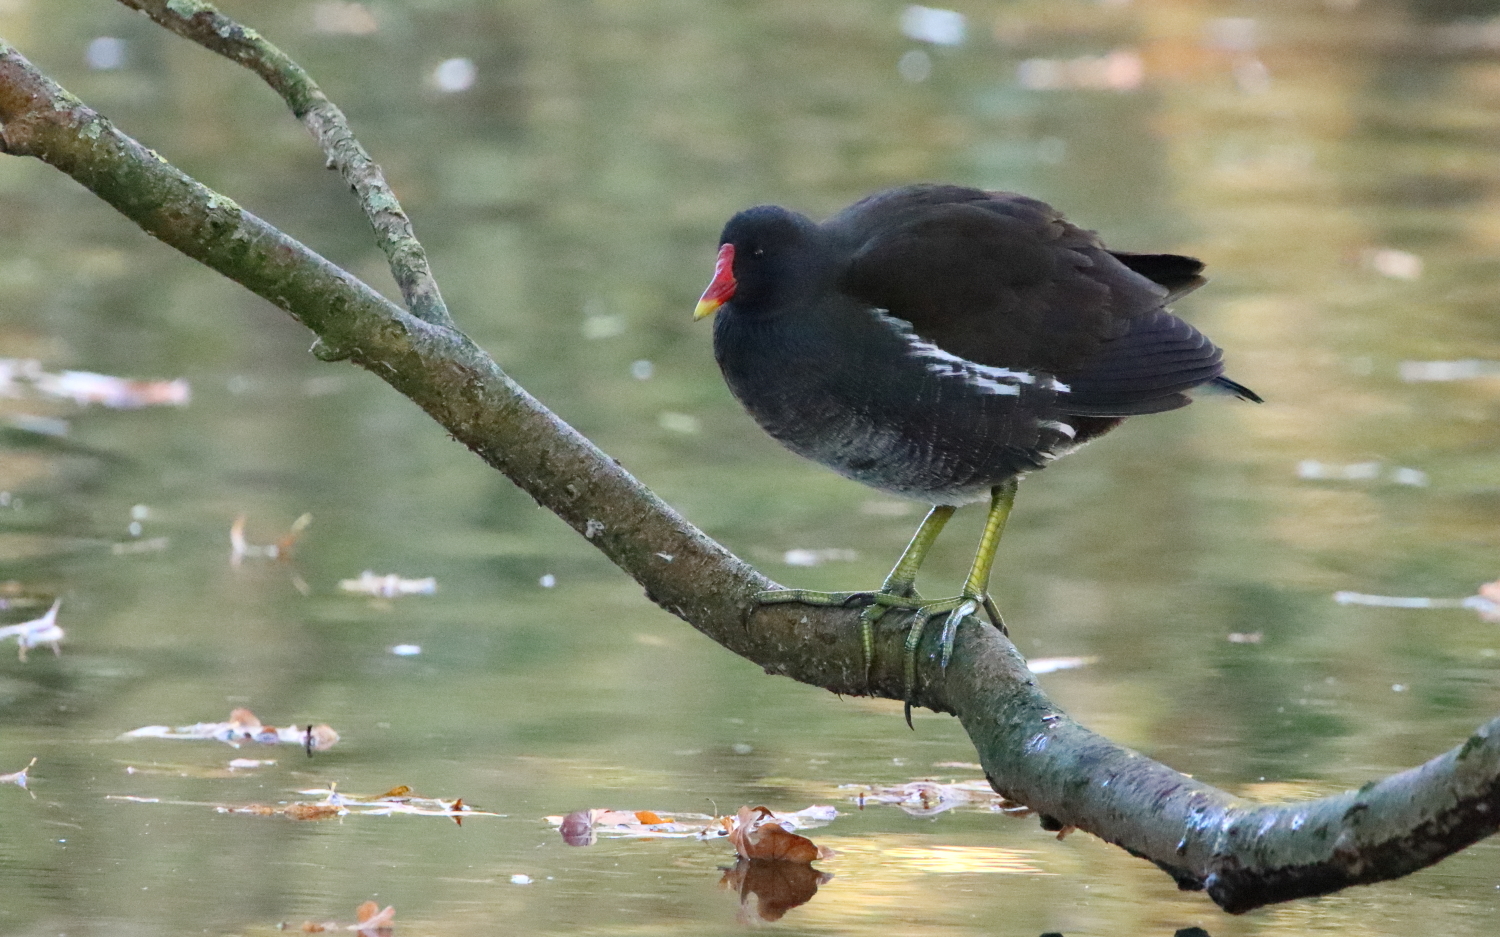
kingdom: Animalia
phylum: Chordata
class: Aves
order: Gruiformes
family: Rallidae
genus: Gallinula
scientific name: Gallinula chloropus
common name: Common moorhen
